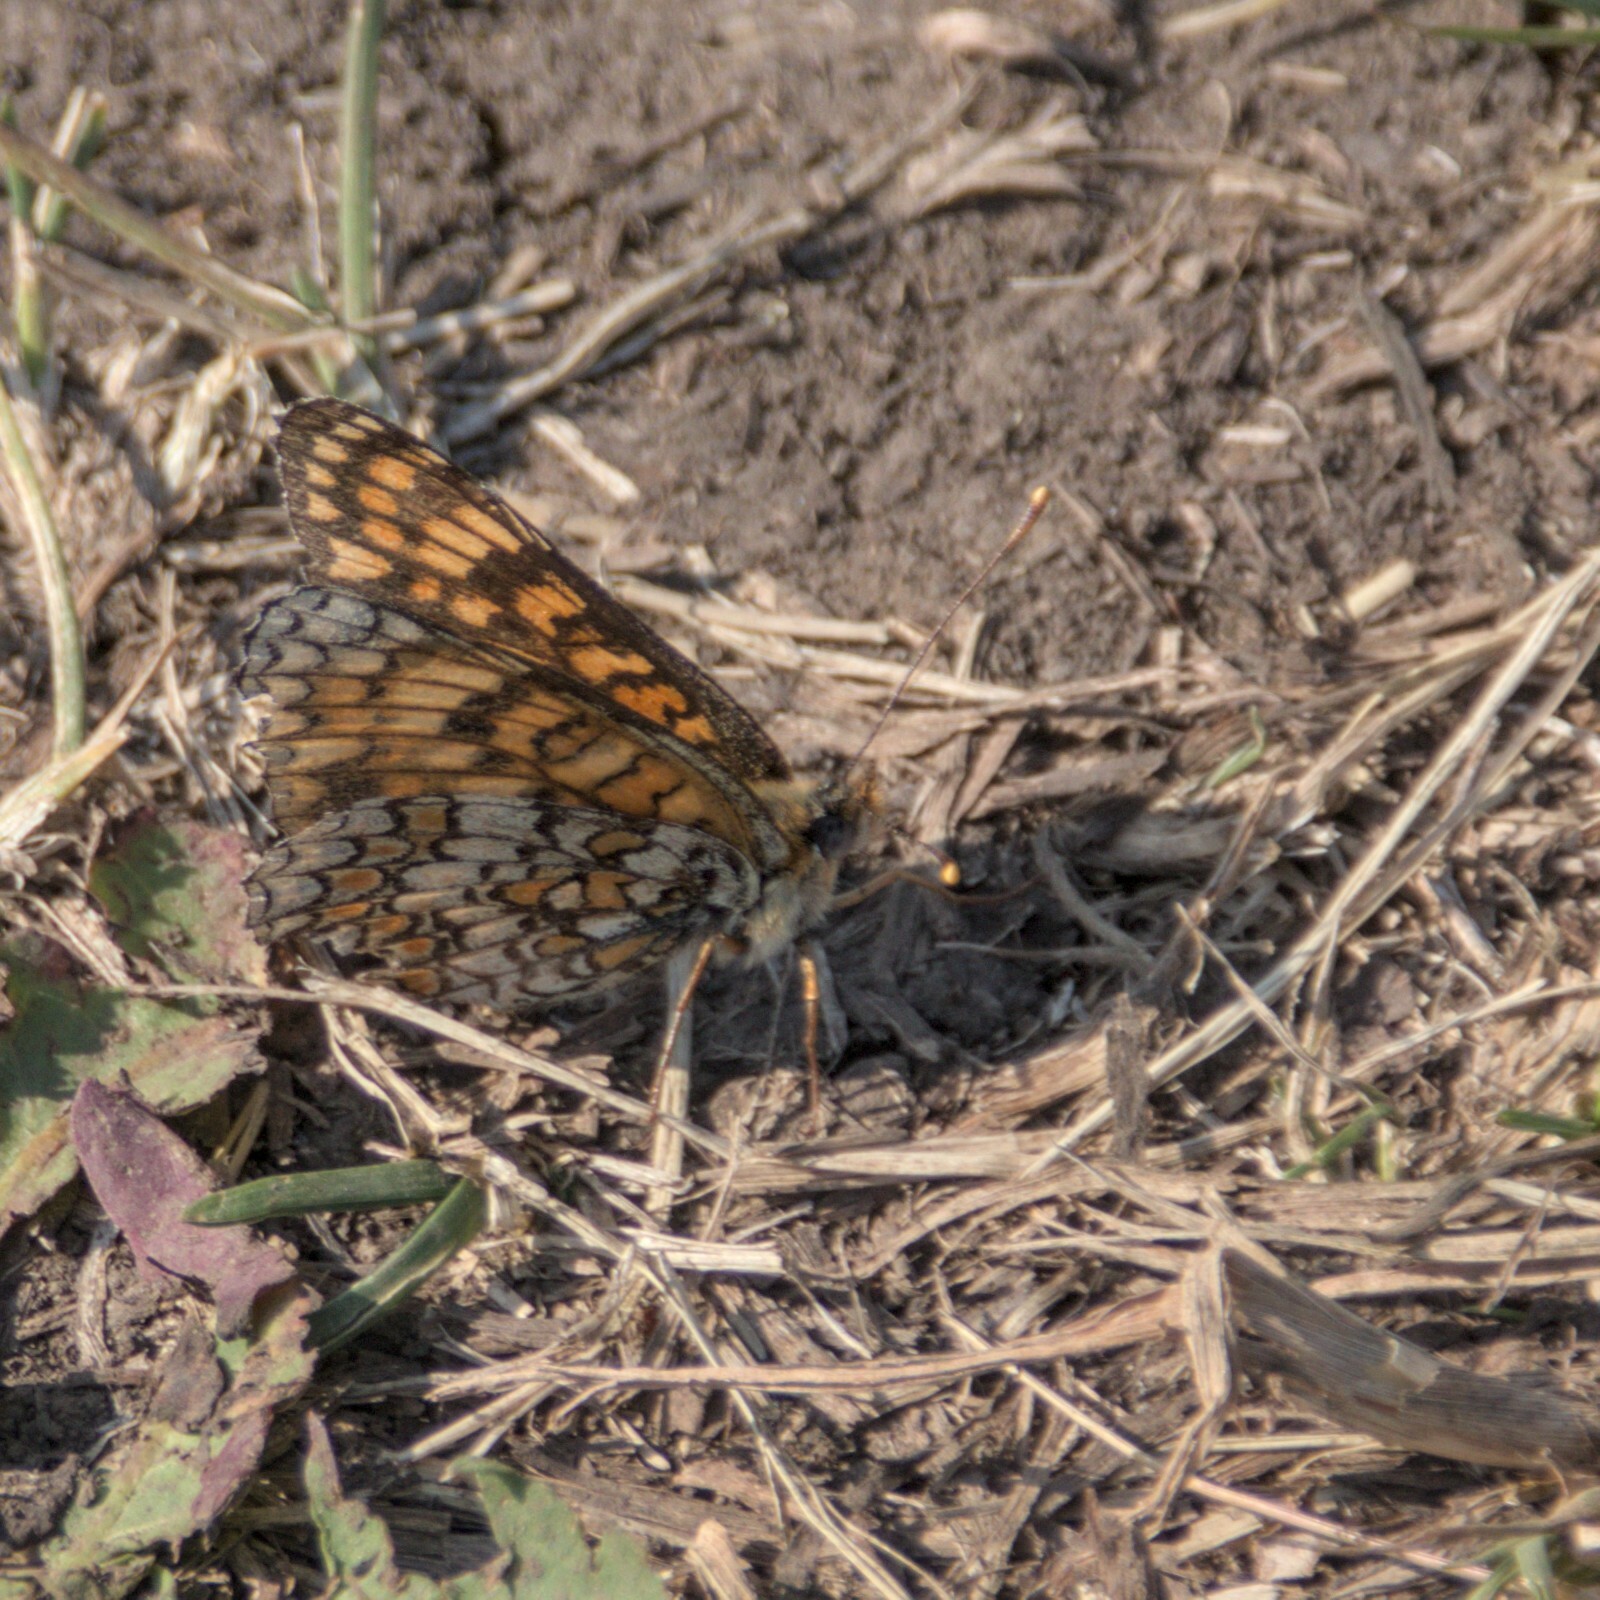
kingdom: Animalia
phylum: Arthropoda
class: Insecta
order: Lepidoptera
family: Nymphalidae
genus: Melitaea
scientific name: Melitaea athalia
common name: Heath fritillary
